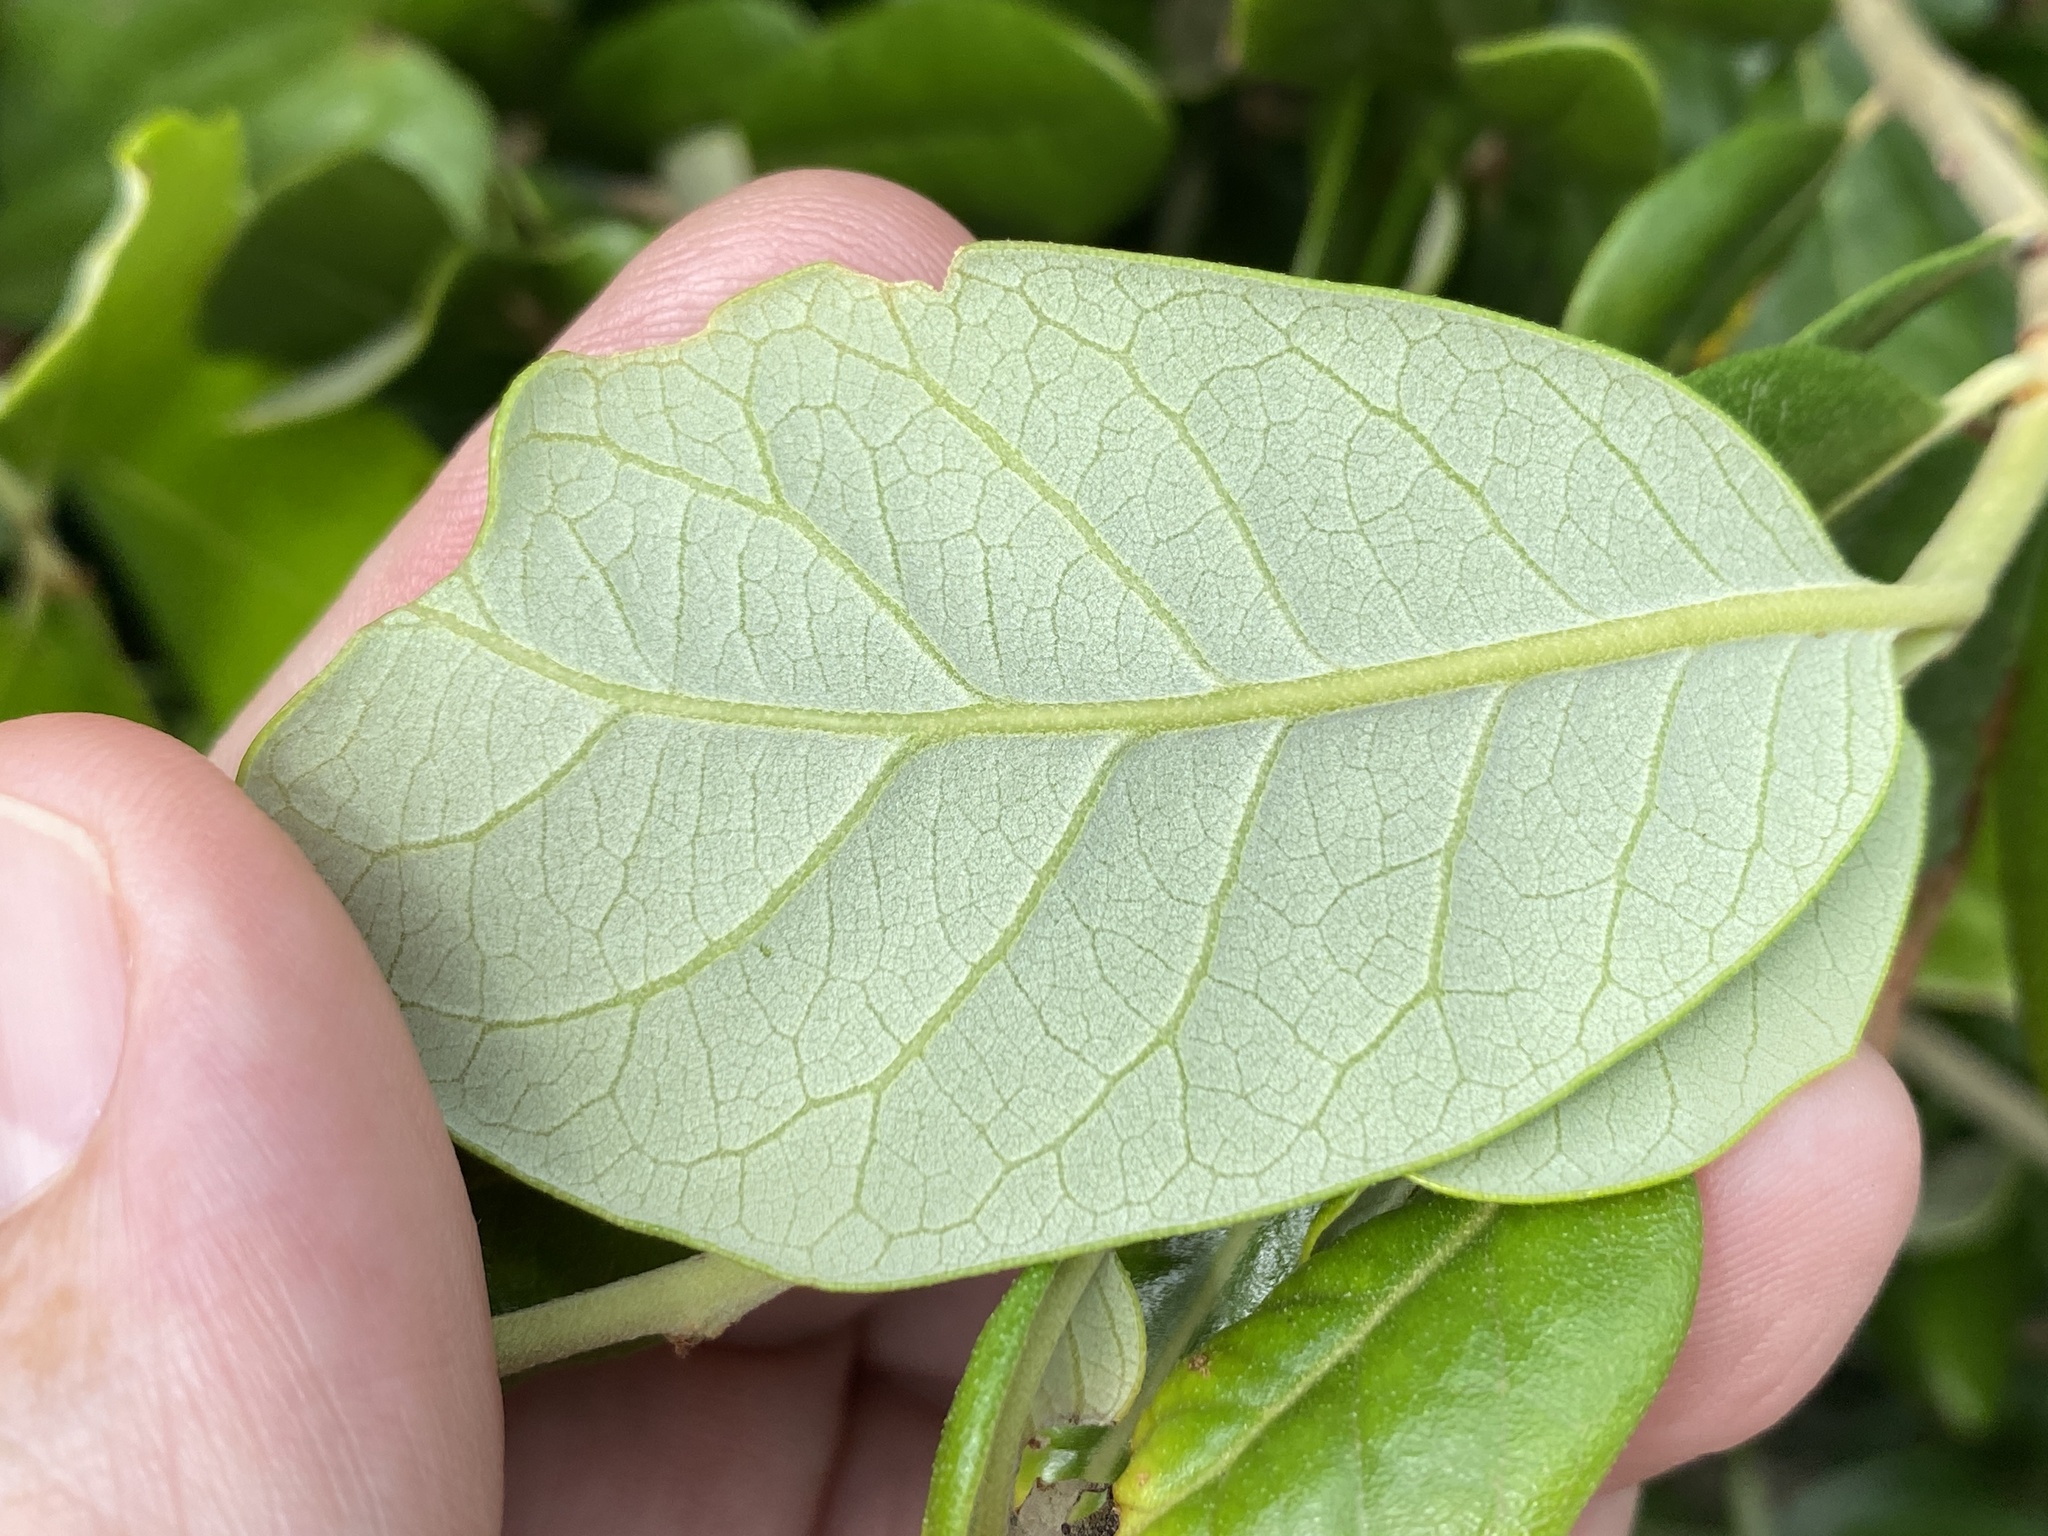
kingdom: Plantae
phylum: Tracheophyta
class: Magnoliopsida
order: Fagales
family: Fagaceae
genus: Quercus
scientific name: Quercus virginiana
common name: Southern live oak
